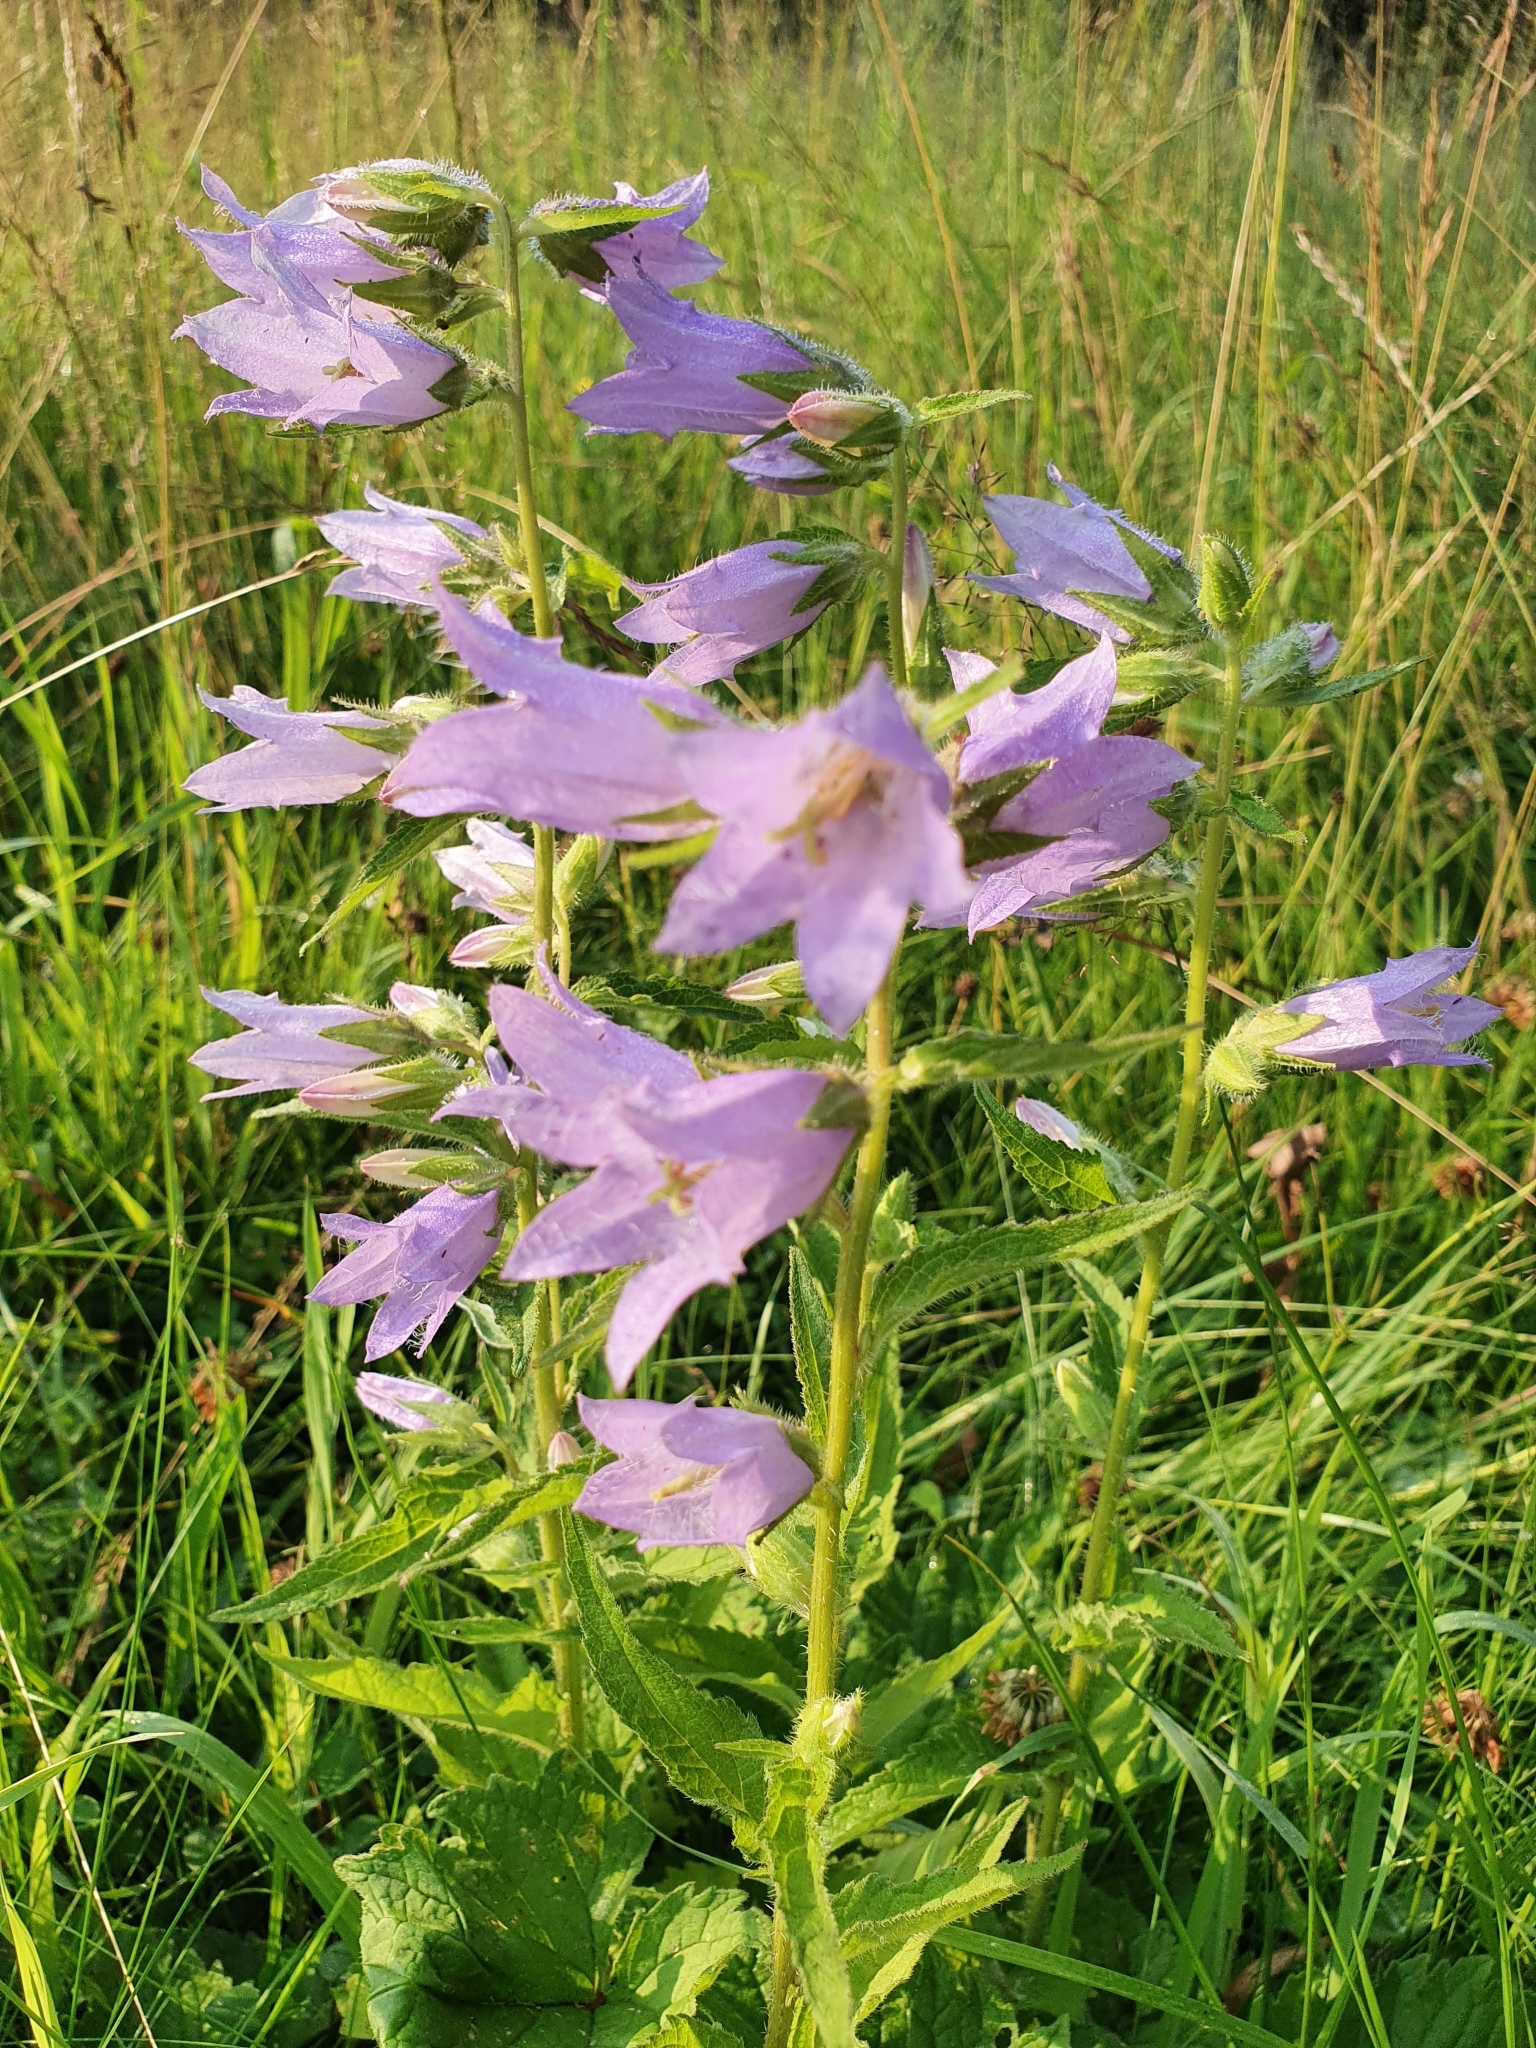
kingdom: Plantae
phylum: Tracheophyta
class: Magnoliopsida
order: Asterales
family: Campanulaceae
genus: Campanula
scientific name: Campanula trachelium
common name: Nettle-leaved bellflower
